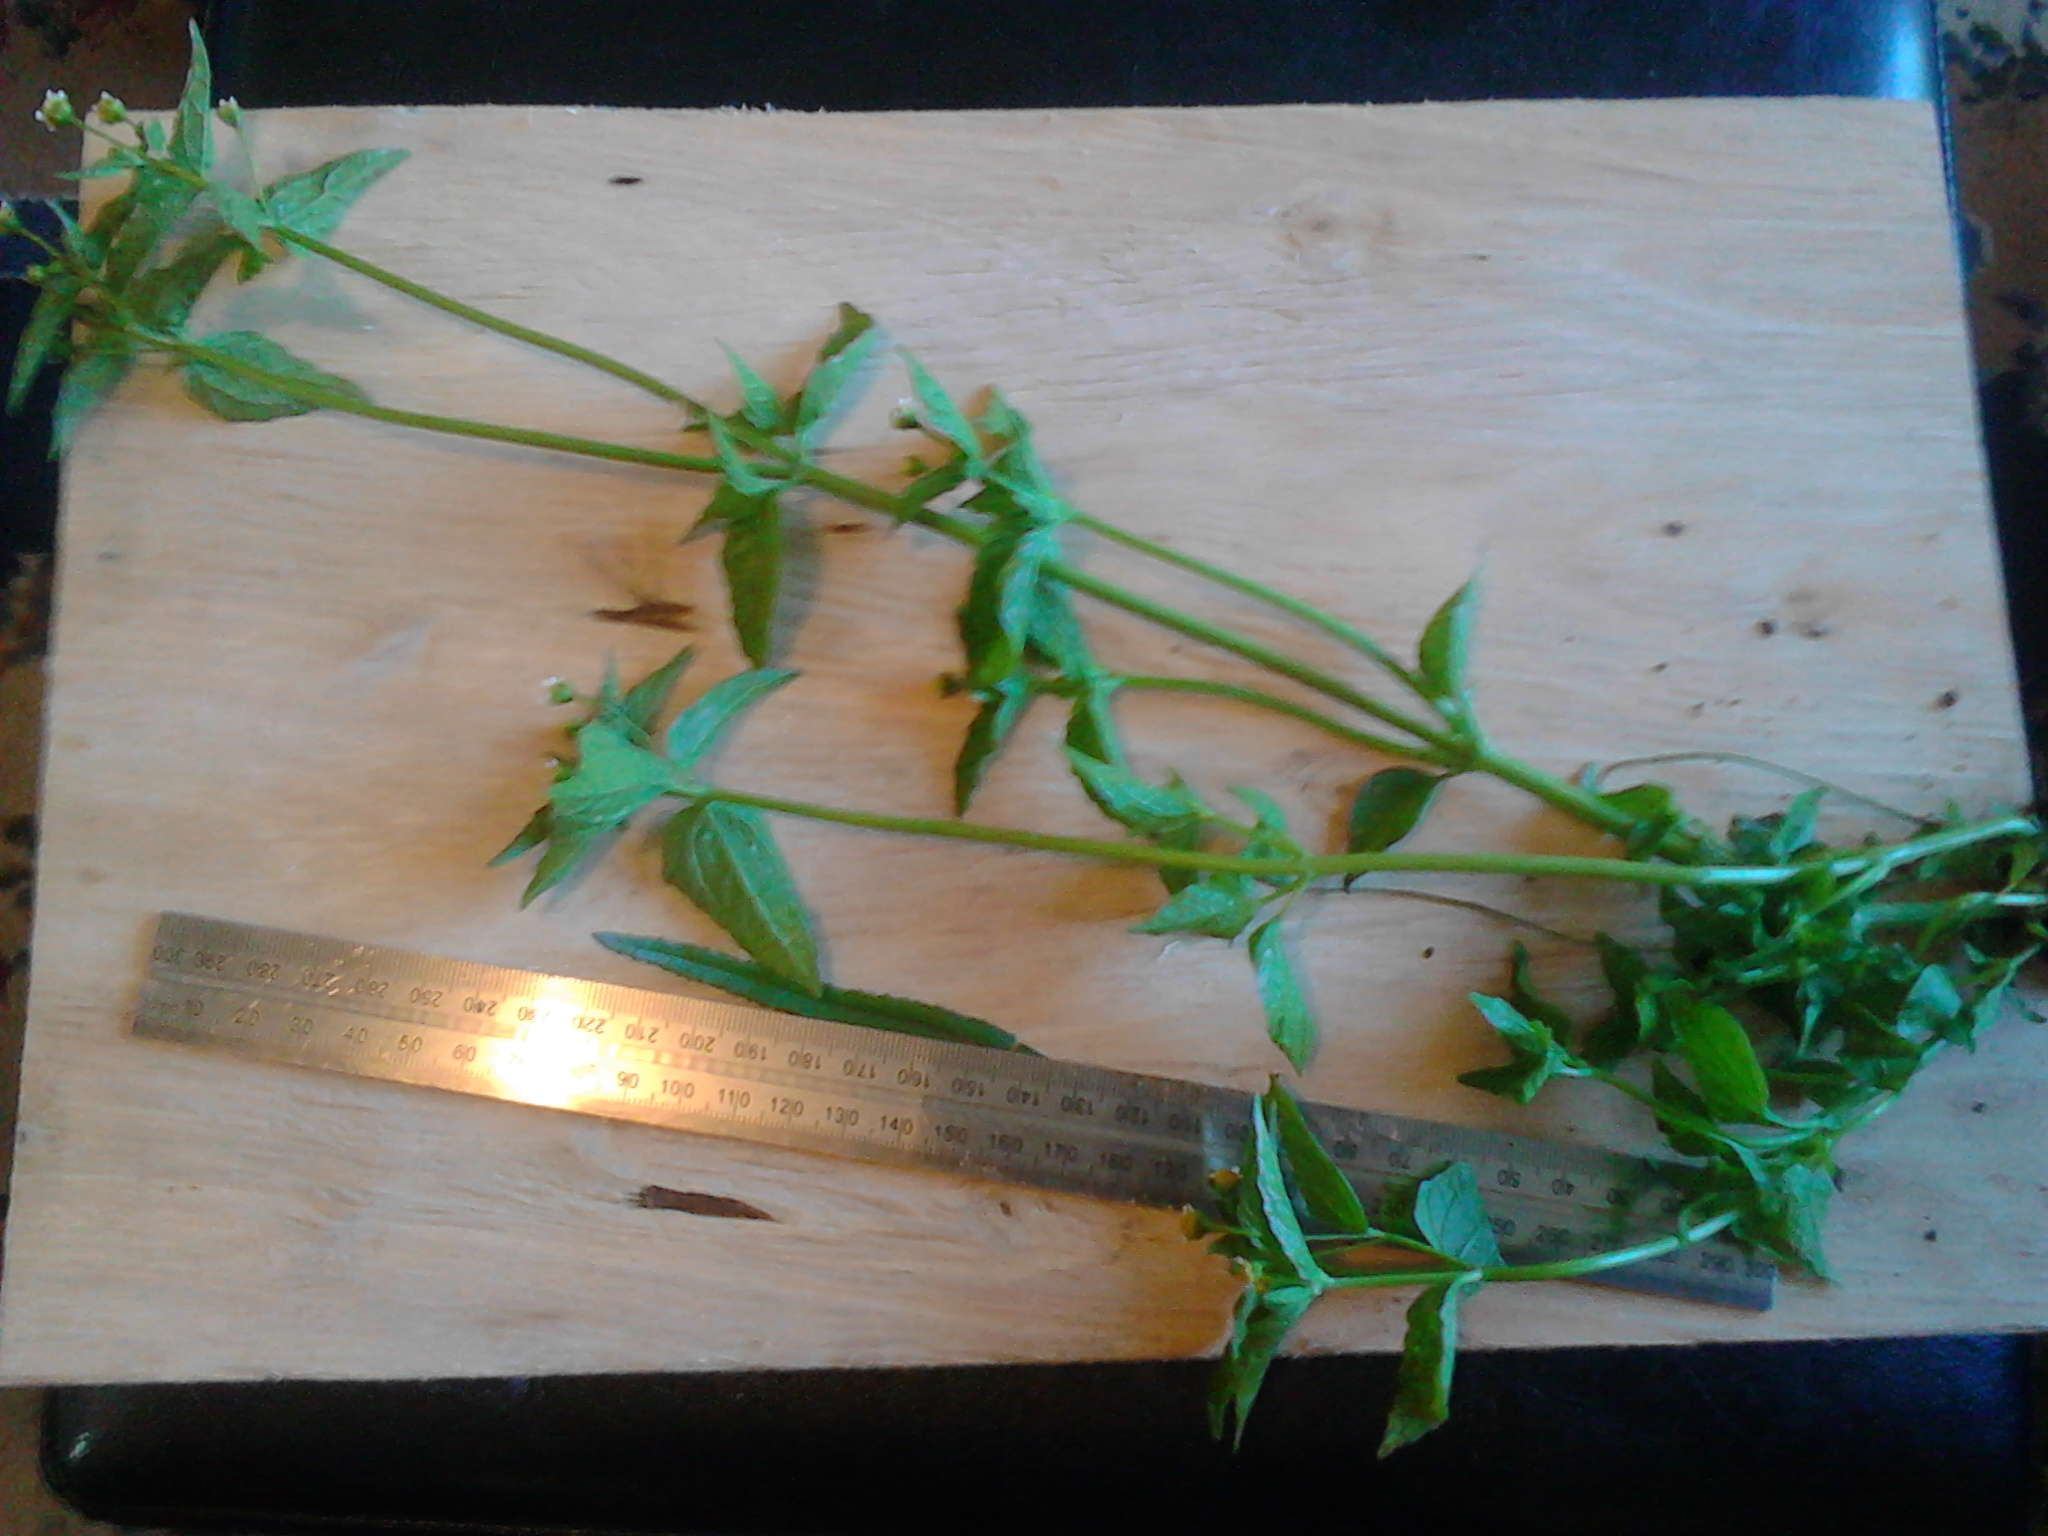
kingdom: Plantae
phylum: Tracheophyta
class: Magnoliopsida
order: Asterales
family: Asteraceae
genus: Galinsoga
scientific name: Galinsoga parviflora
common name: Gallant soldier
